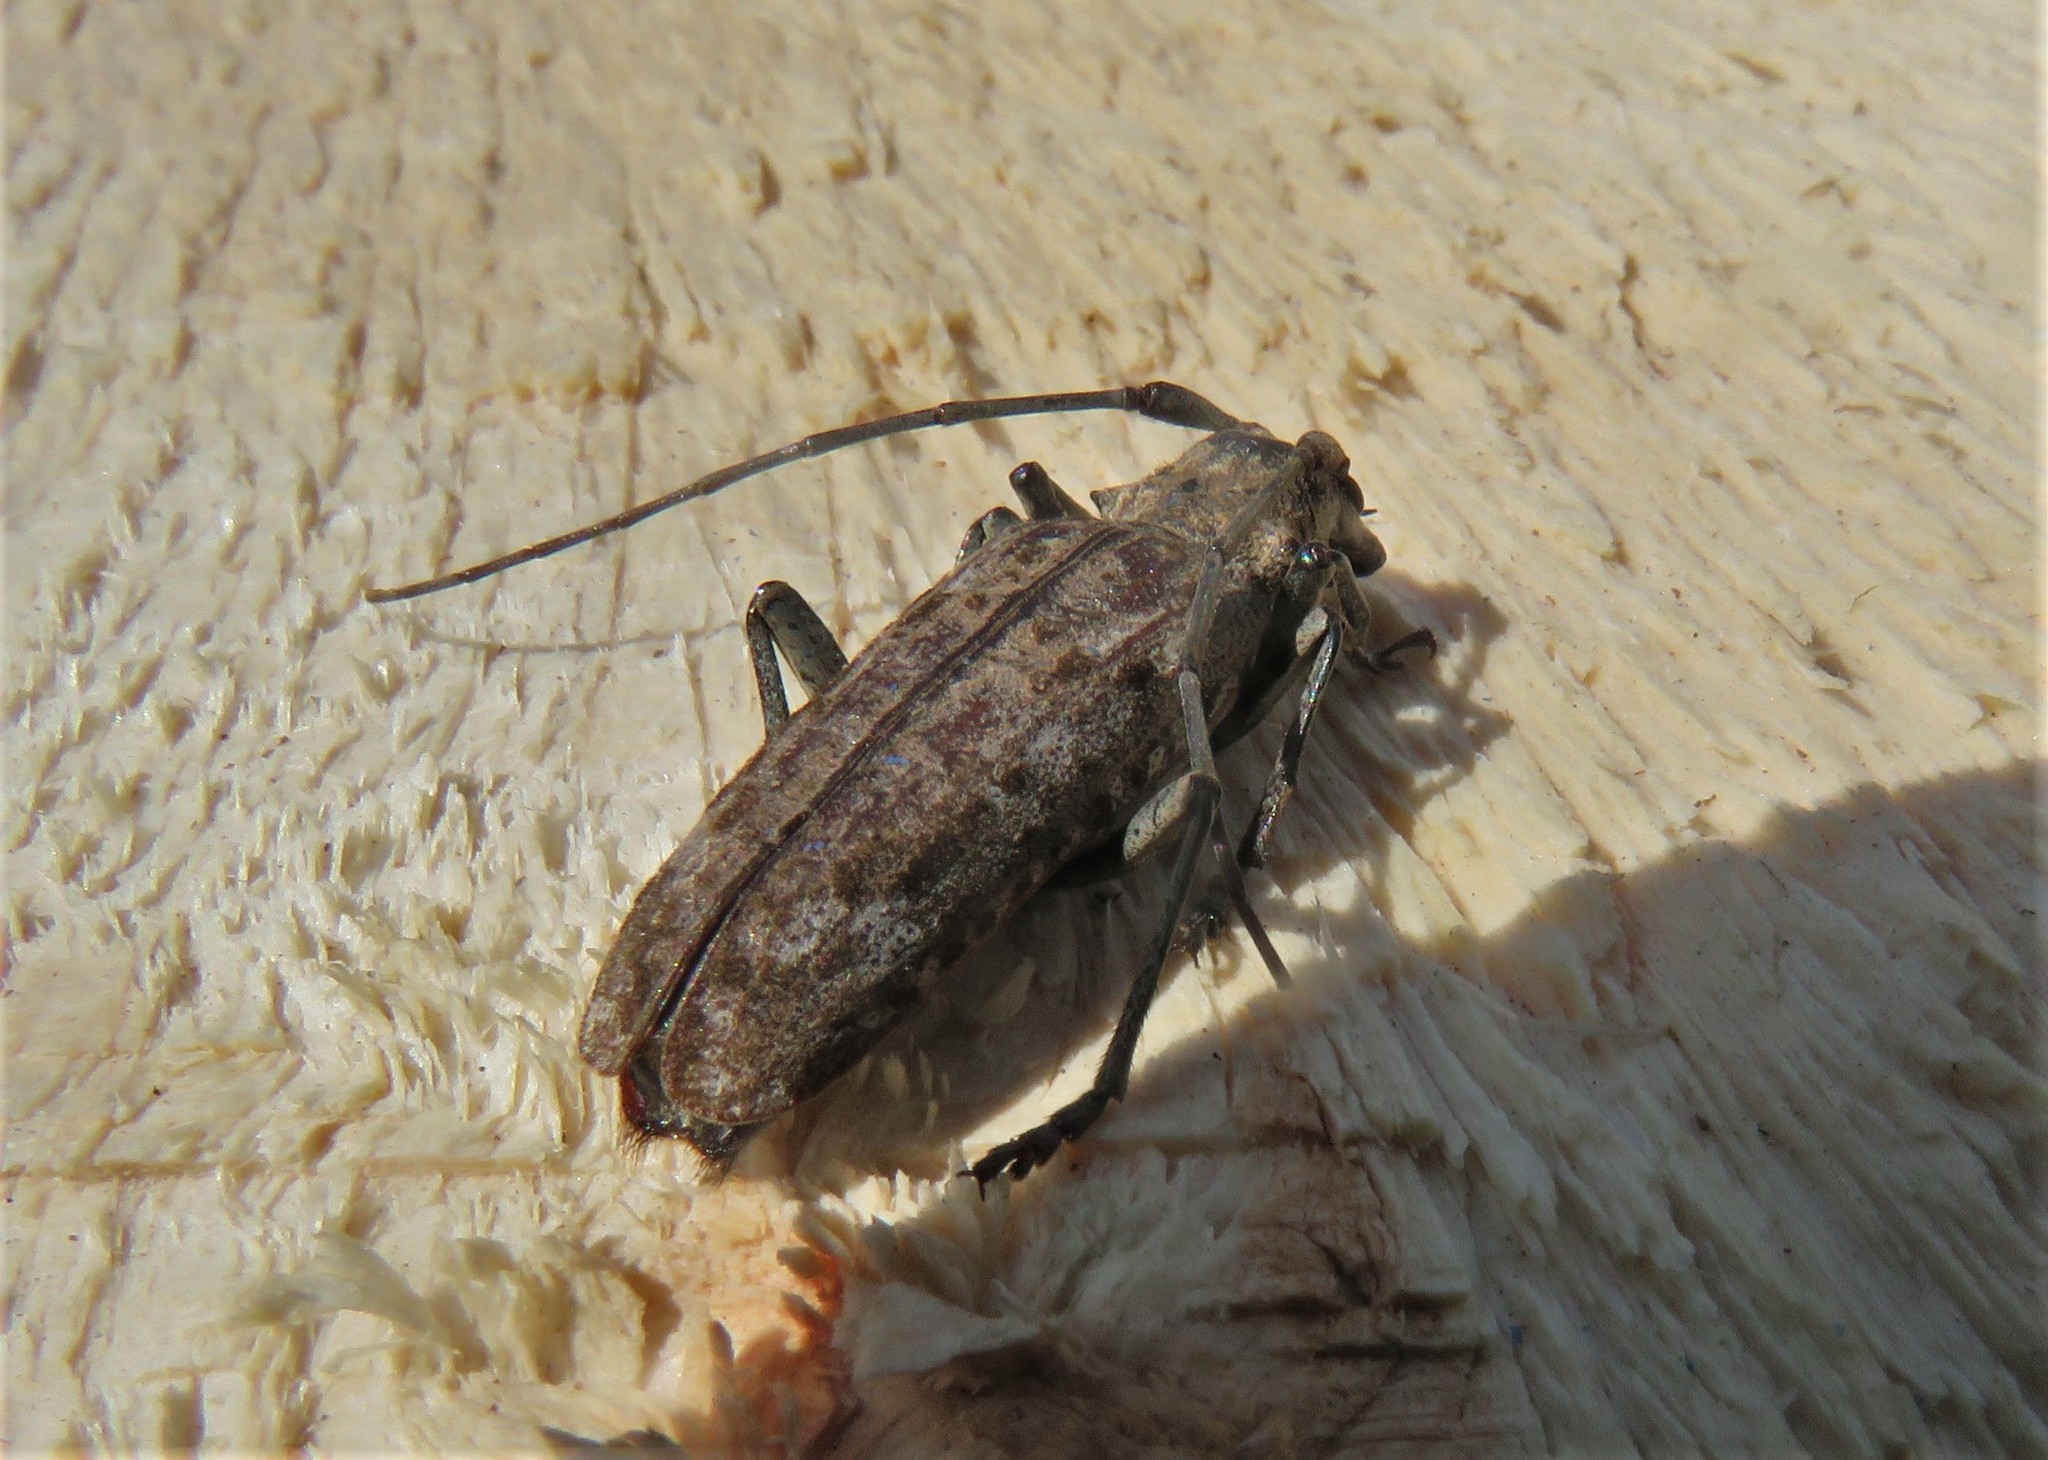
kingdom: Animalia
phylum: Arthropoda
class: Insecta
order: Coleoptera
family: Cerambycidae
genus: Monochamus
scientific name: Monochamus notatus
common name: Northeastern pine sawyer beetle
